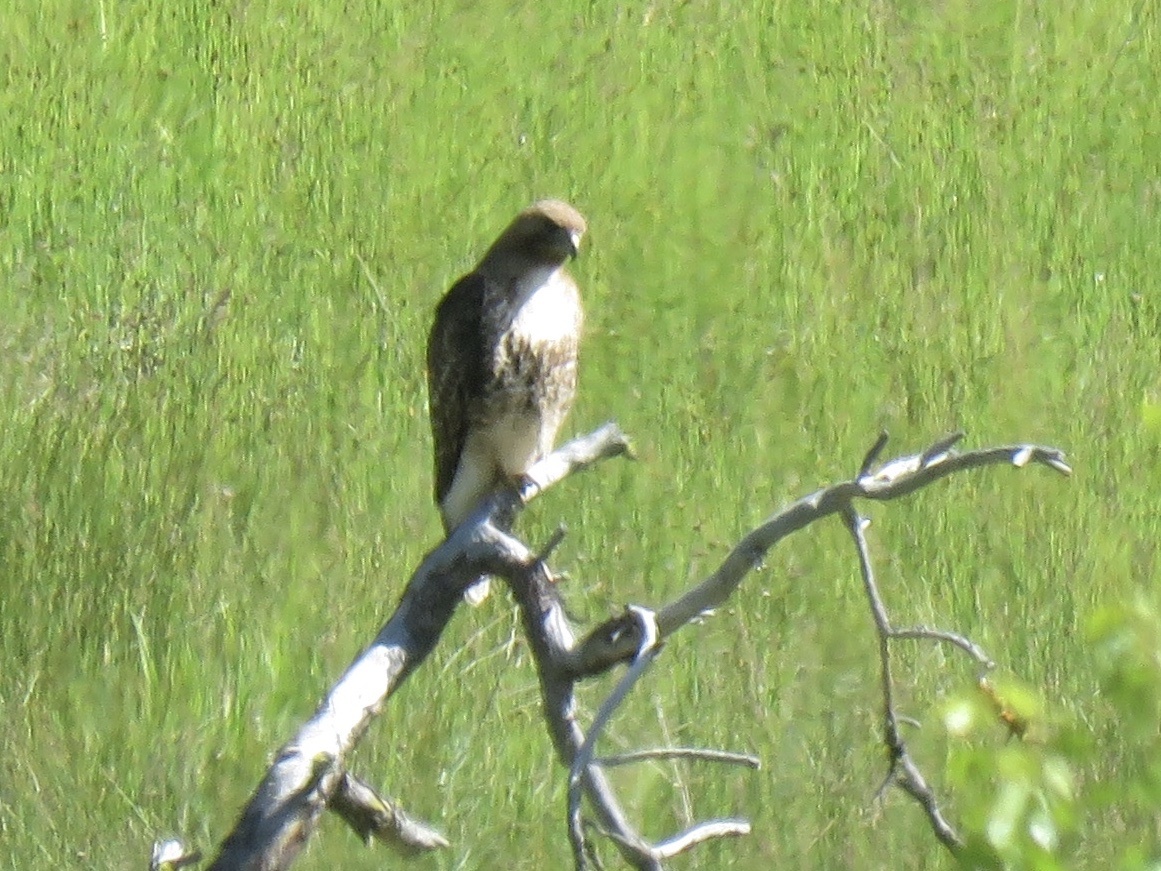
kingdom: Animalia
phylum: Chordata
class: Aves
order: Accipitriformes
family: Accipitridae
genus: Buteo
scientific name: Buteo jamaicensis
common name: Red-tailed hawk
